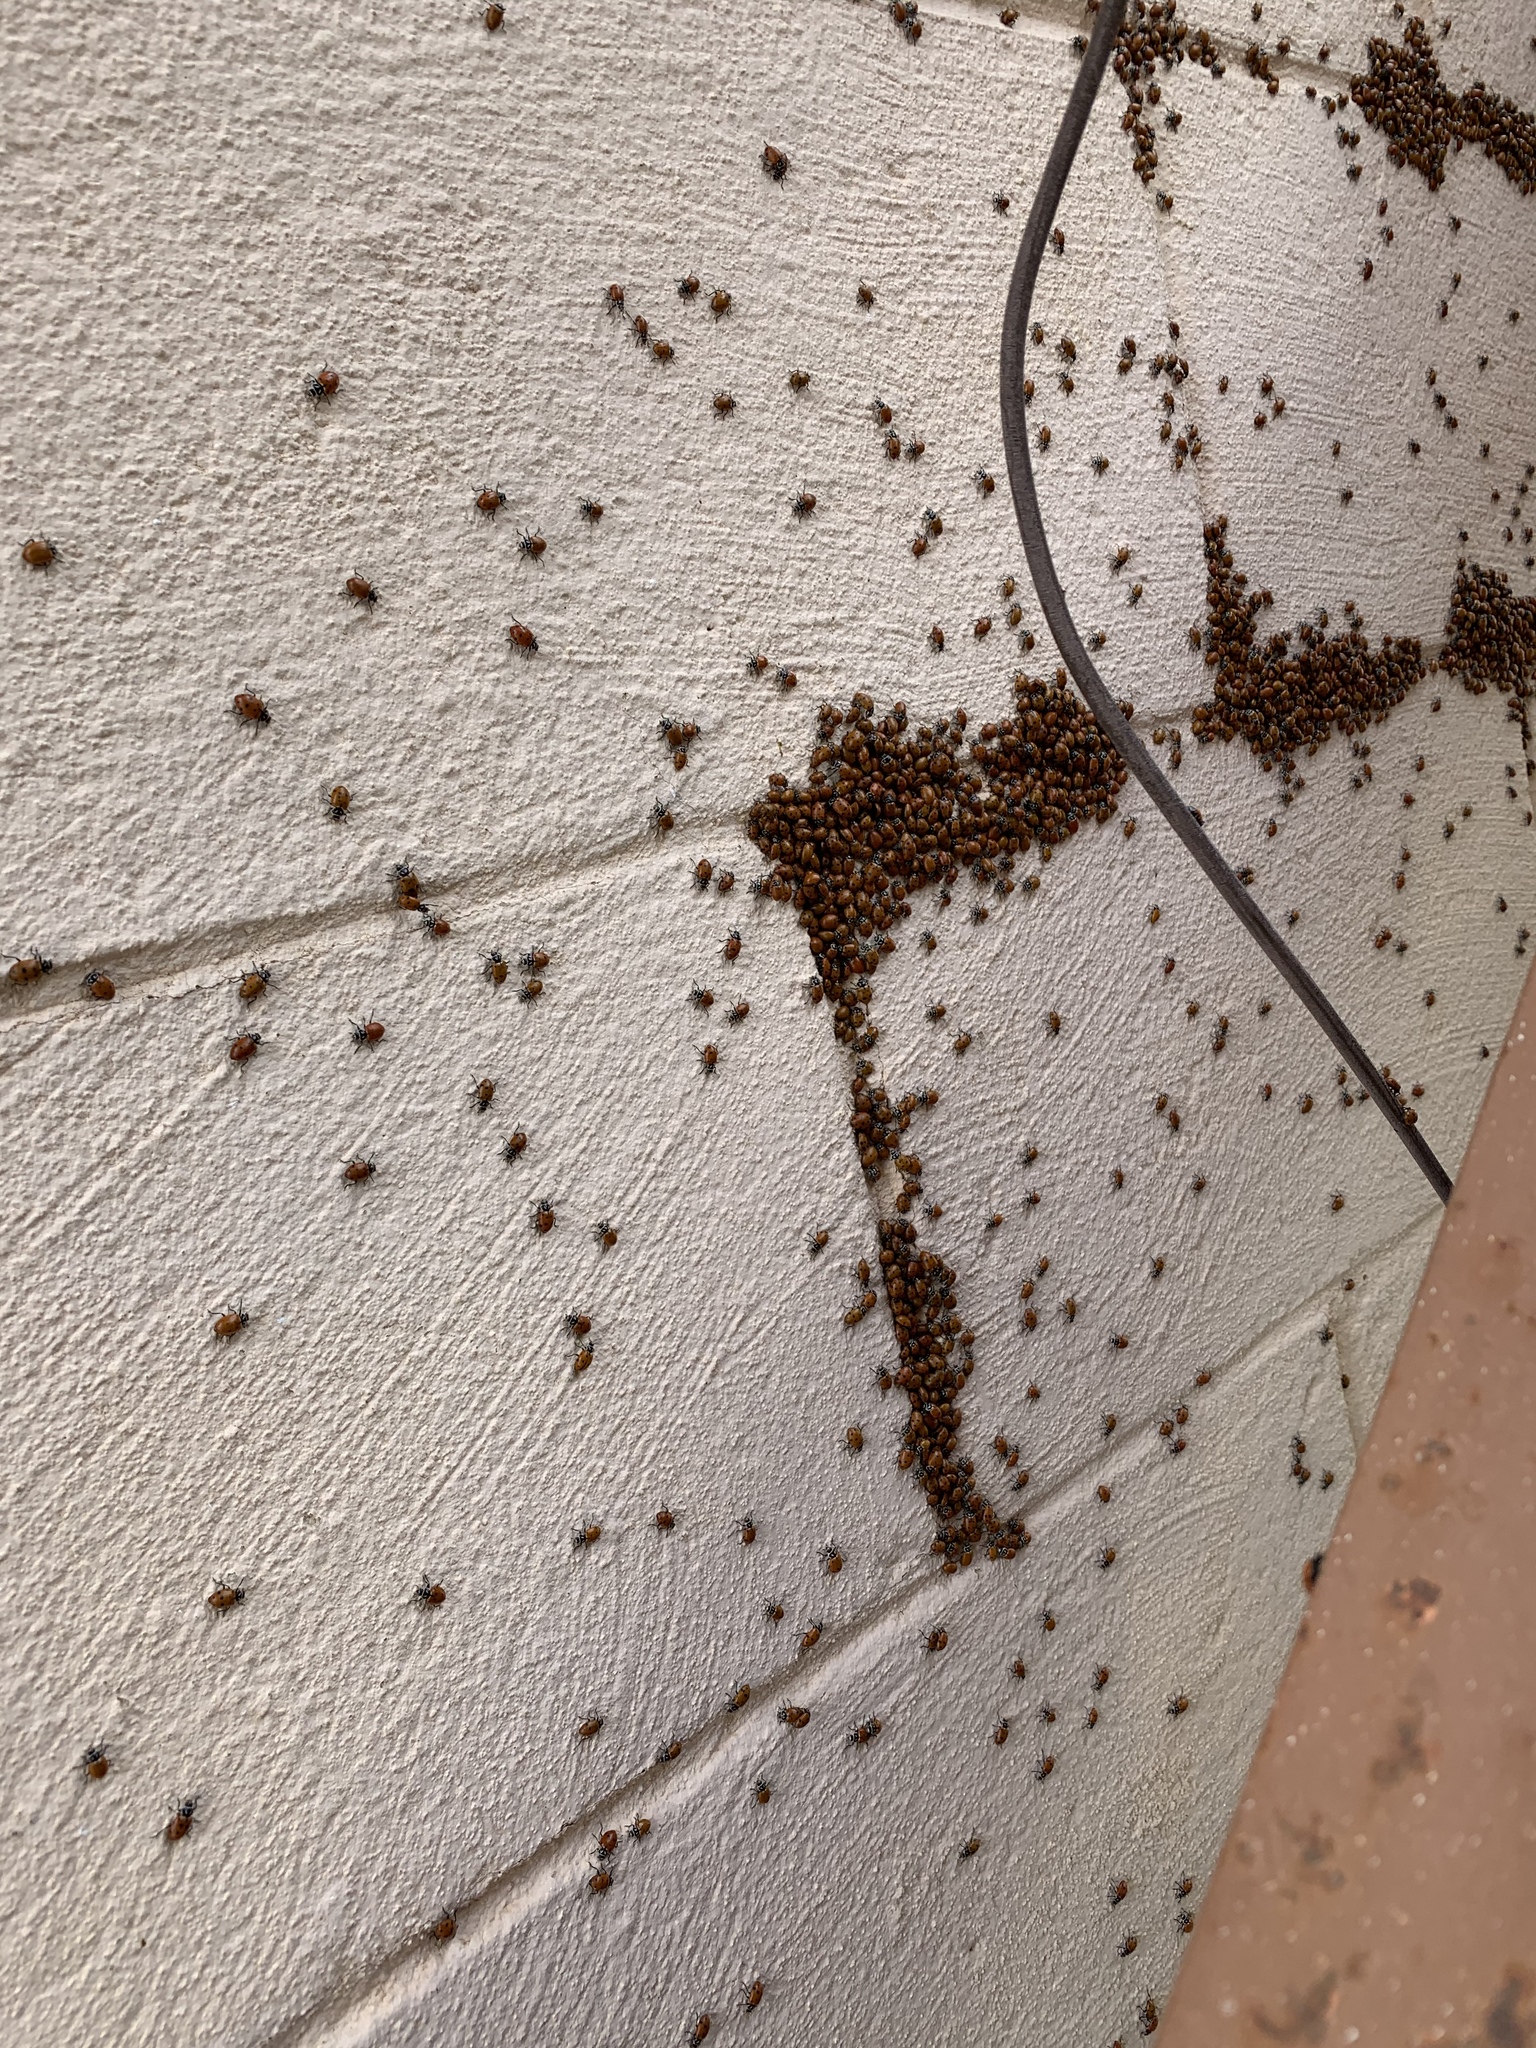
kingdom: Animalia
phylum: Arthropoda
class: Insecta
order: Coleoptera
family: Coccinellidae
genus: Hippodamia
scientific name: Hippodamia convergens
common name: Convergent lady beetle
